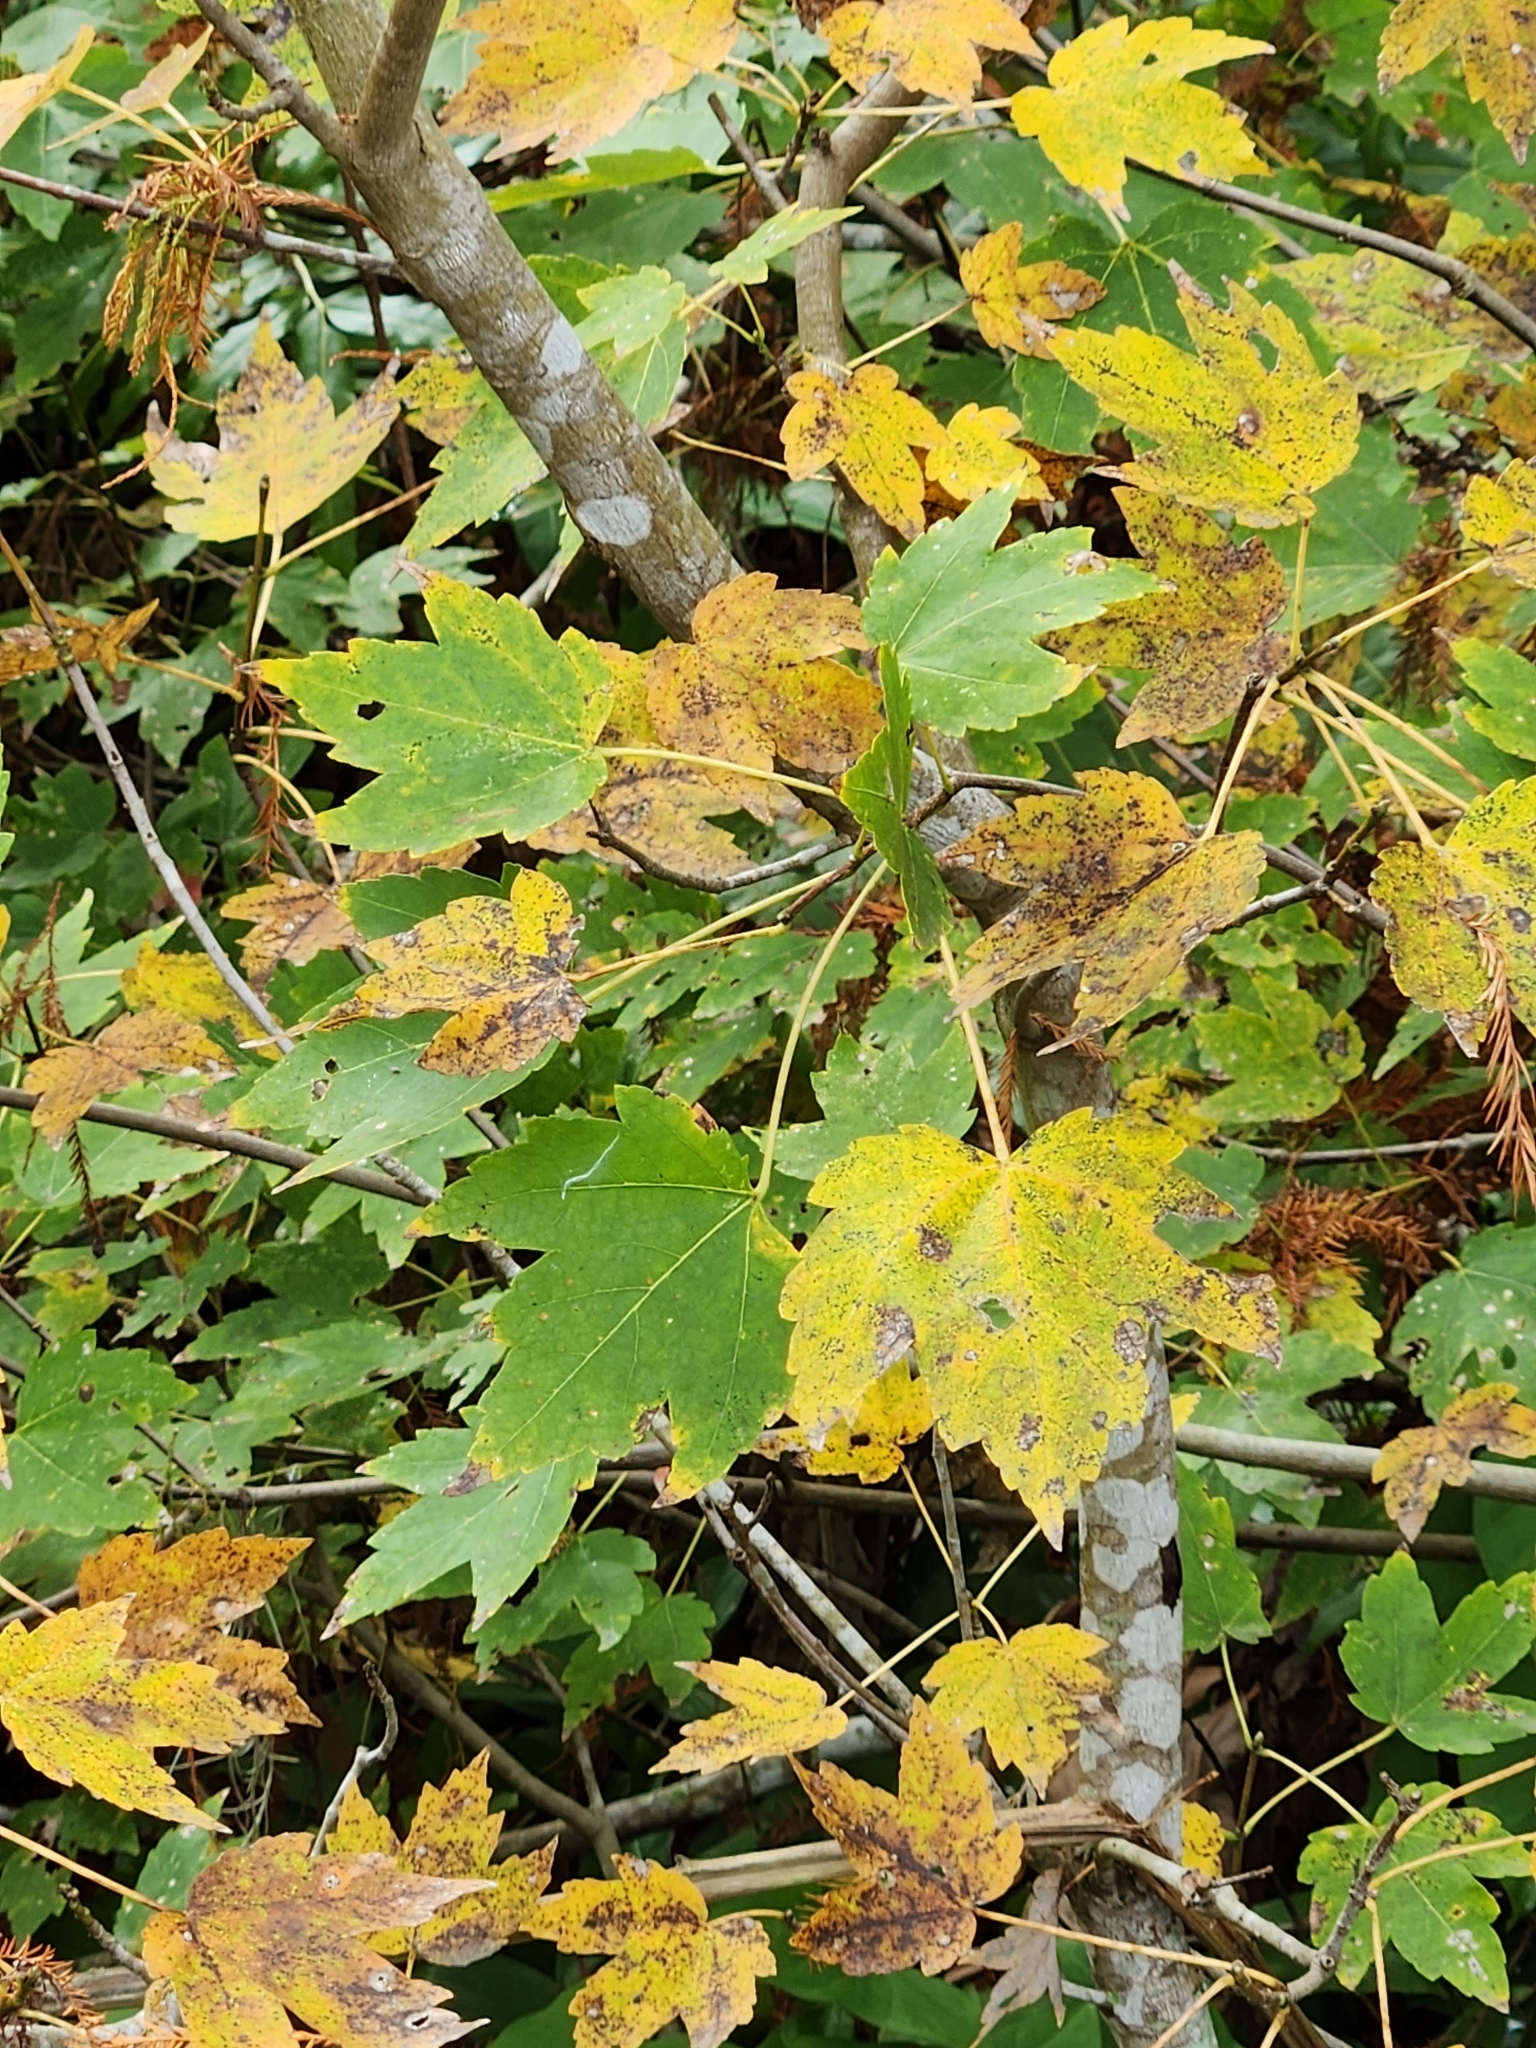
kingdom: Plantae
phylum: Tracheophyta
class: Magnoliopsida
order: Sapindales
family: Sapindaceae
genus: Acer
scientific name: Acer rubrum
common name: Red maple
